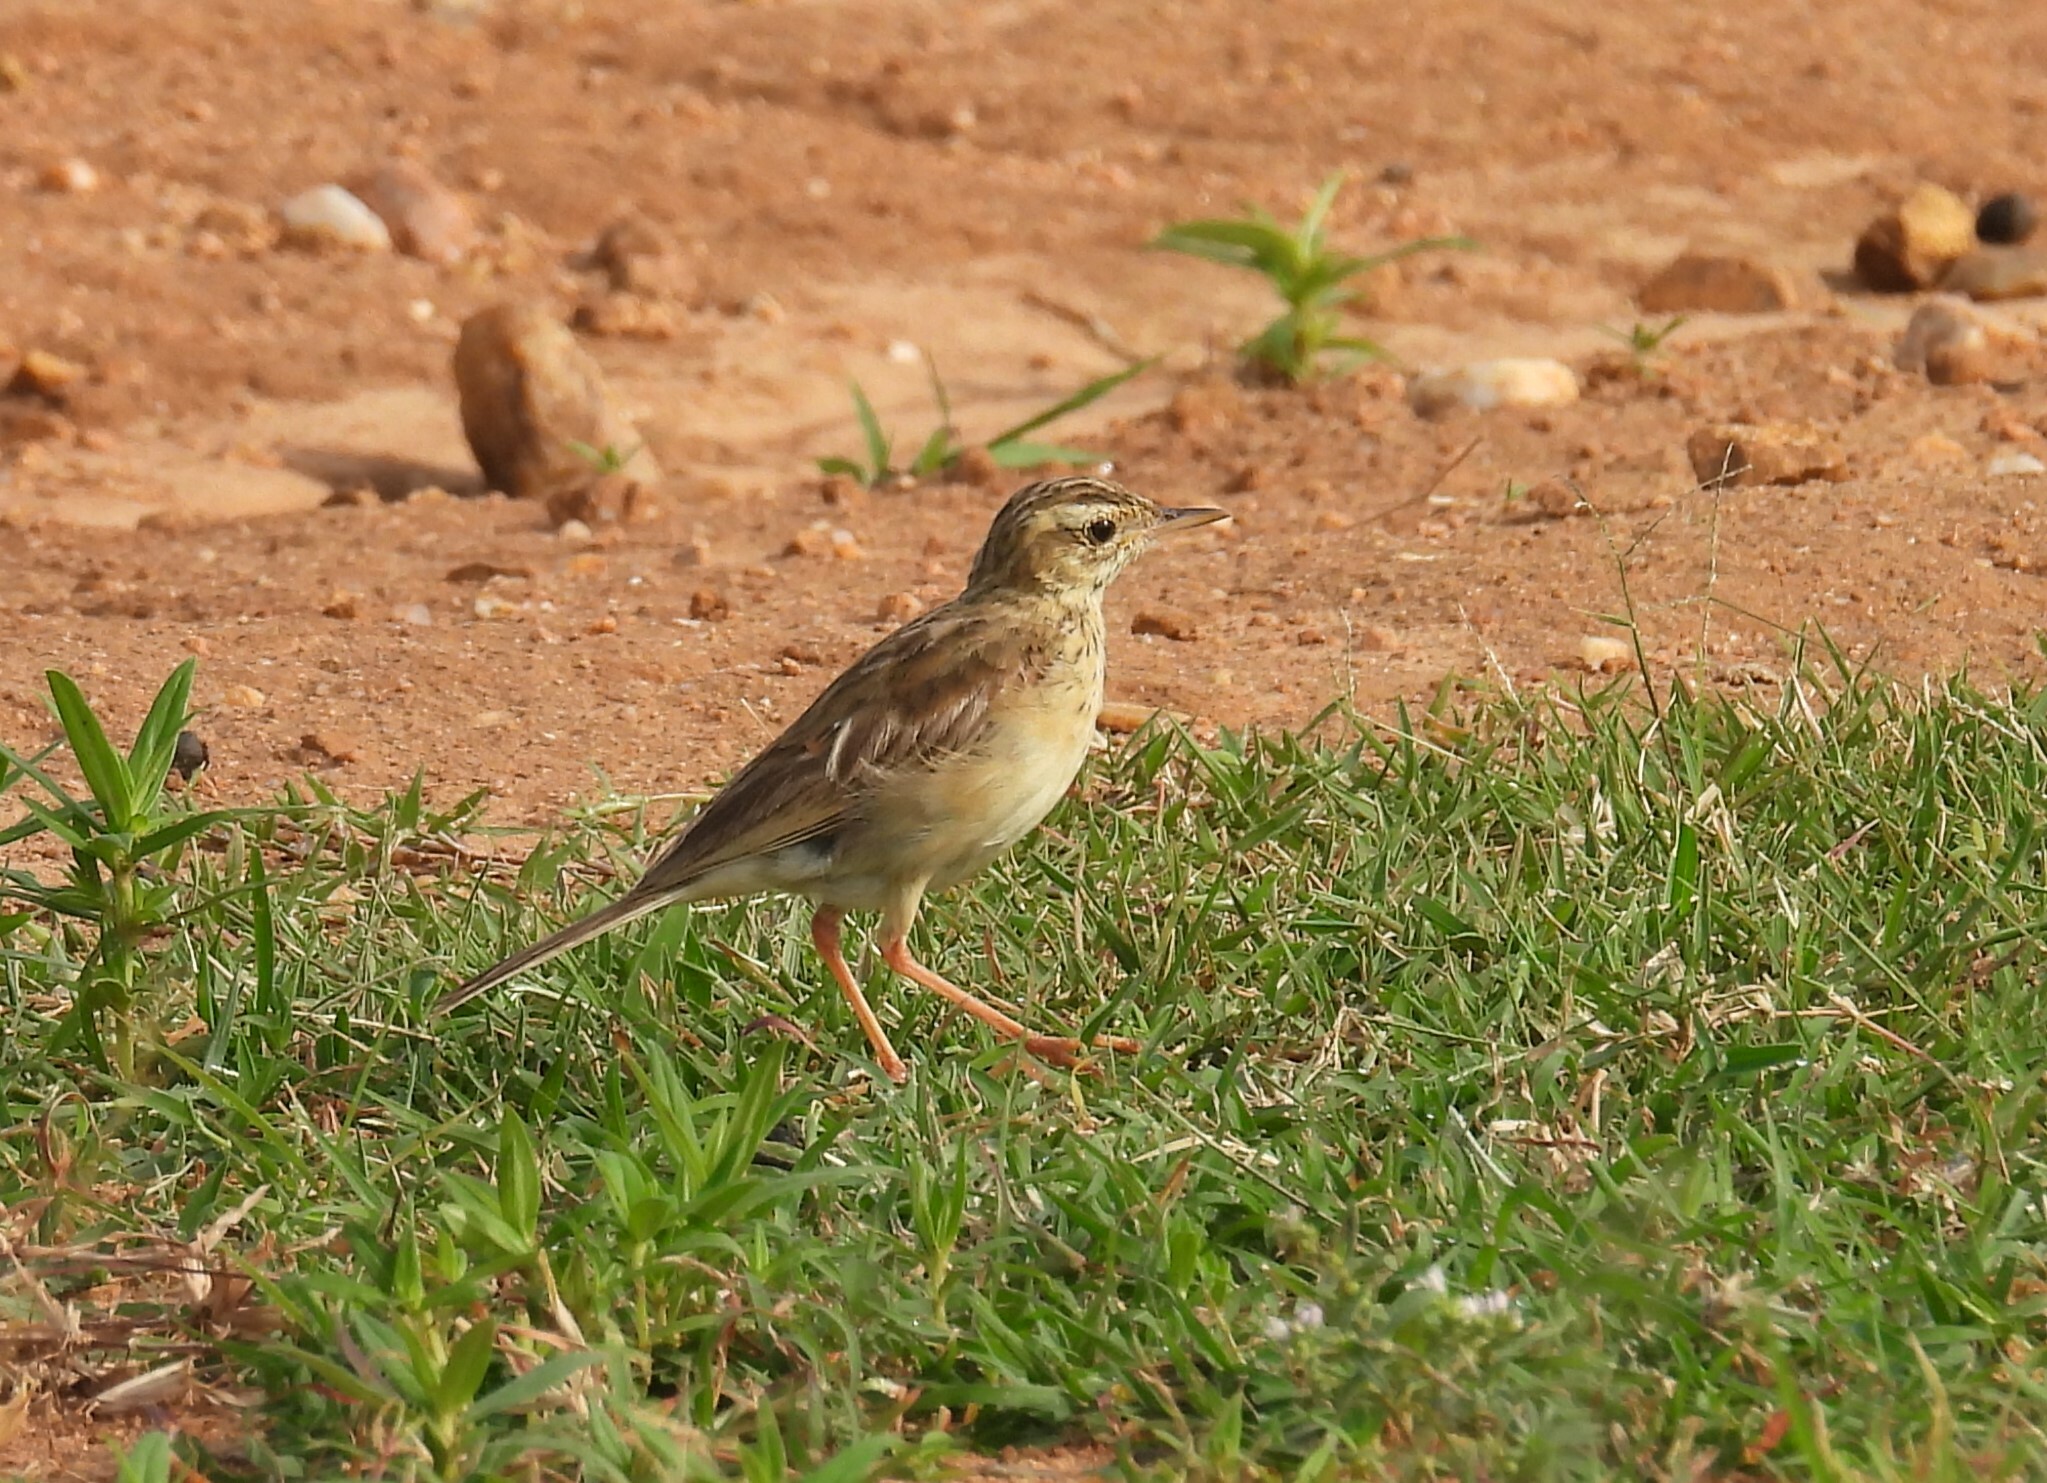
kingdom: Animalia
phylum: Chordata
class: Aves
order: Passeriformes
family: Motacillidae
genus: Anthus
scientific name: Anthus rufulus
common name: Paddyfield pipit
